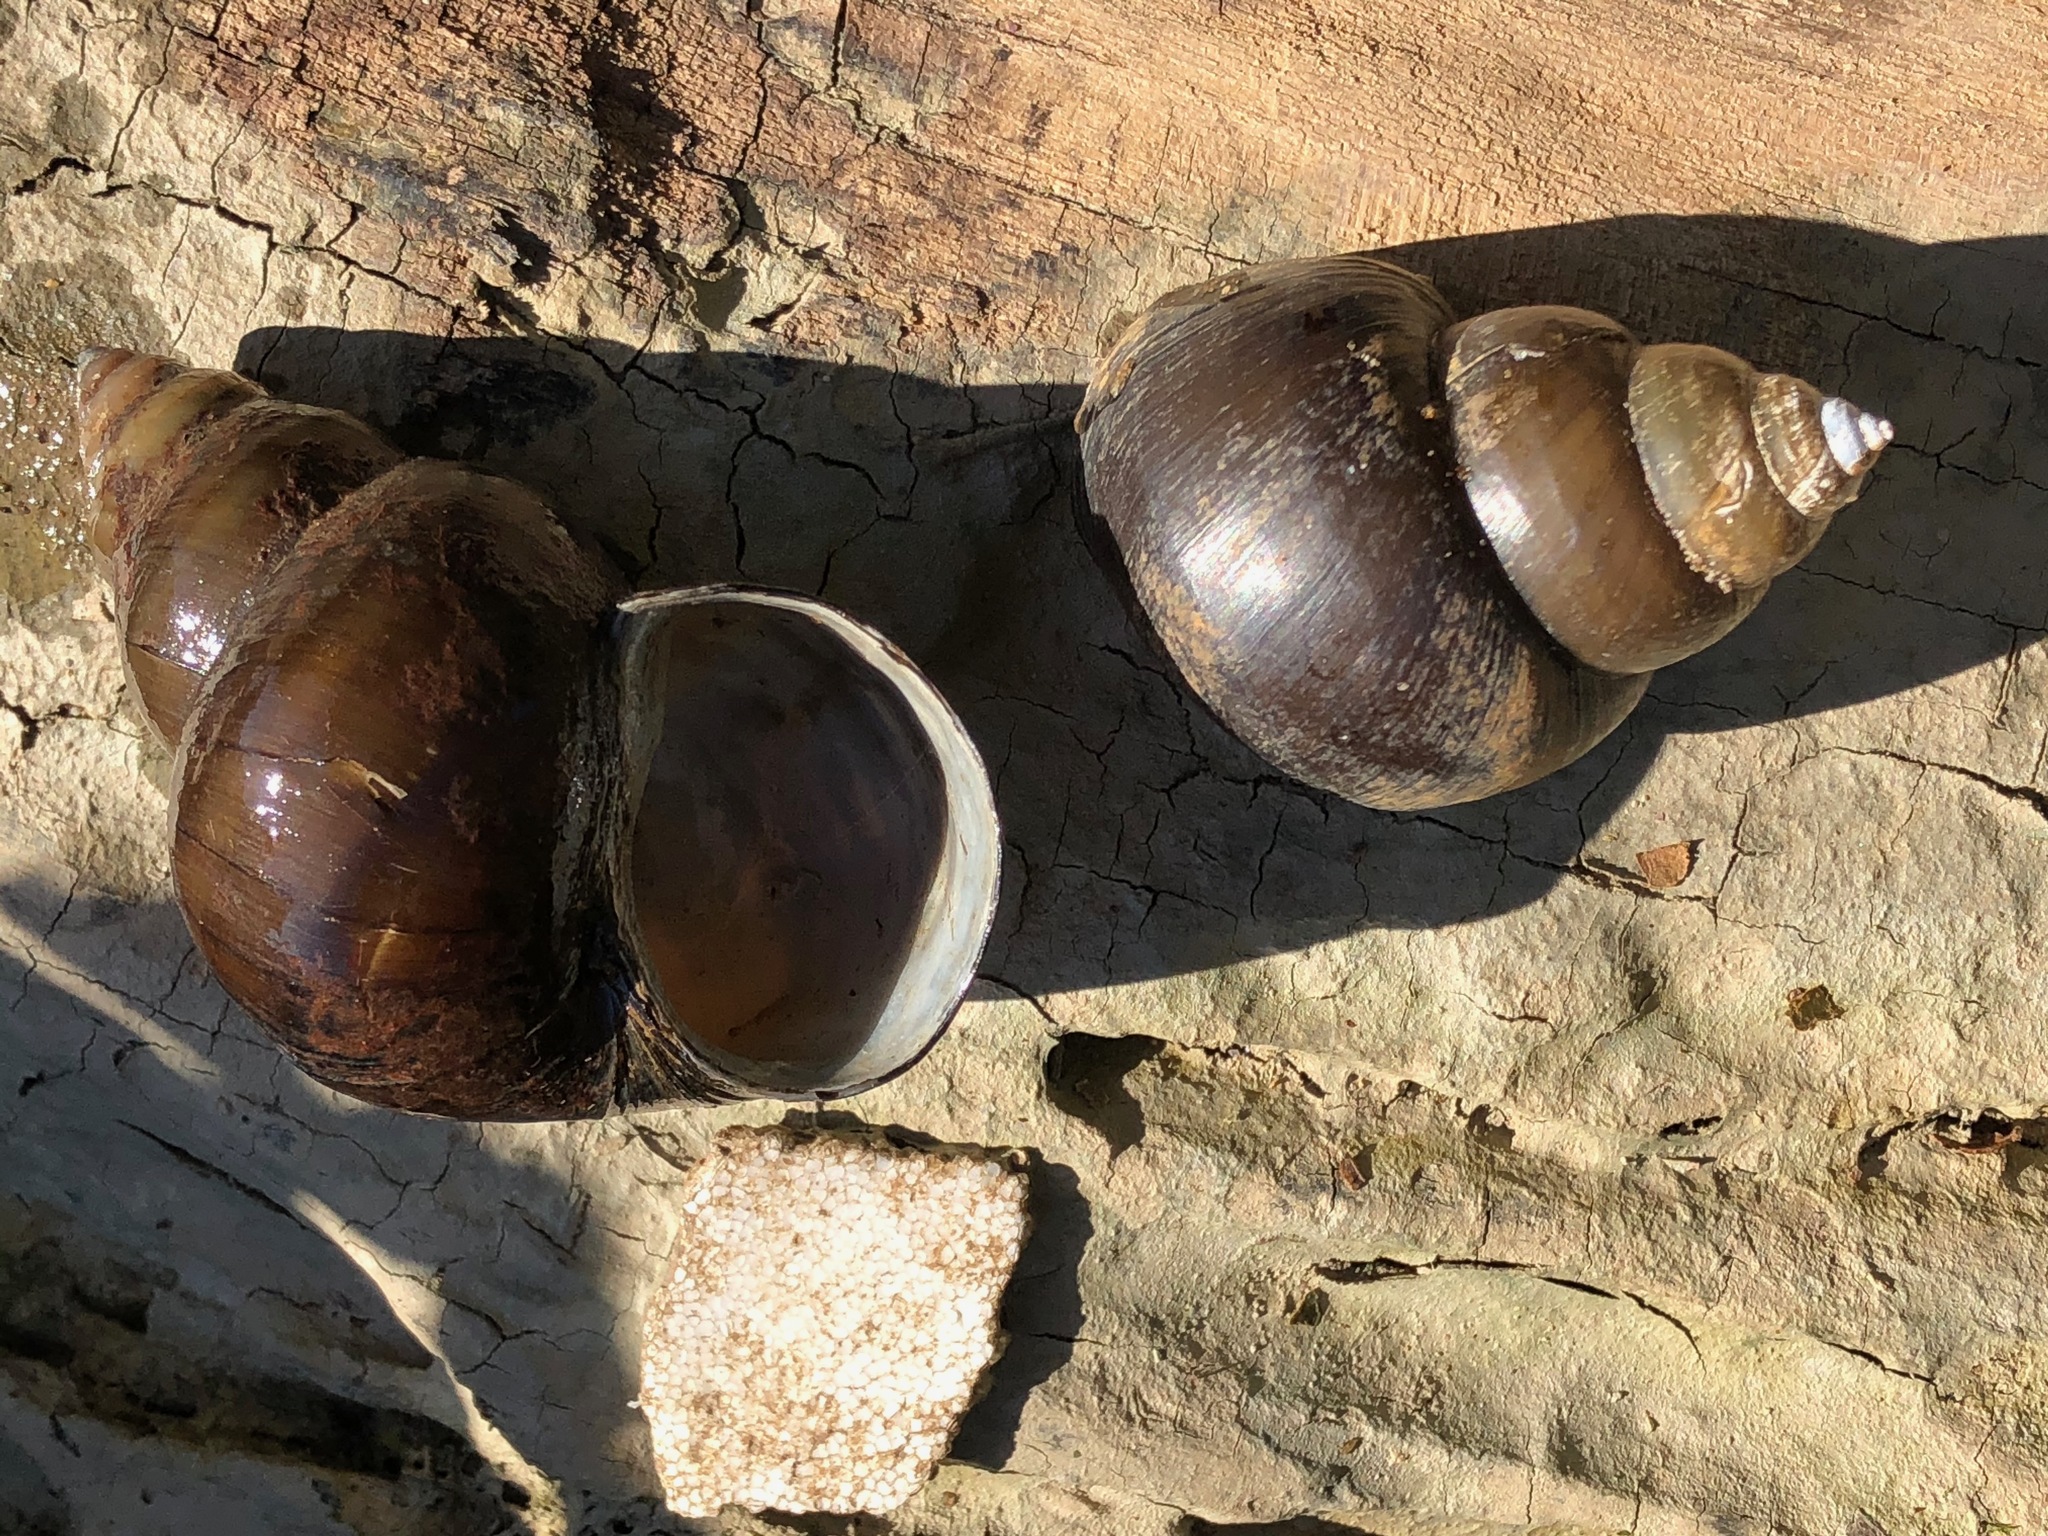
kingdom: Animalia
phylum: Mollusca
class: Gastropoda
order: Architaenioglossa
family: Viviparidae
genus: Cipangopaludina
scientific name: Cipangopaludina chinensis
